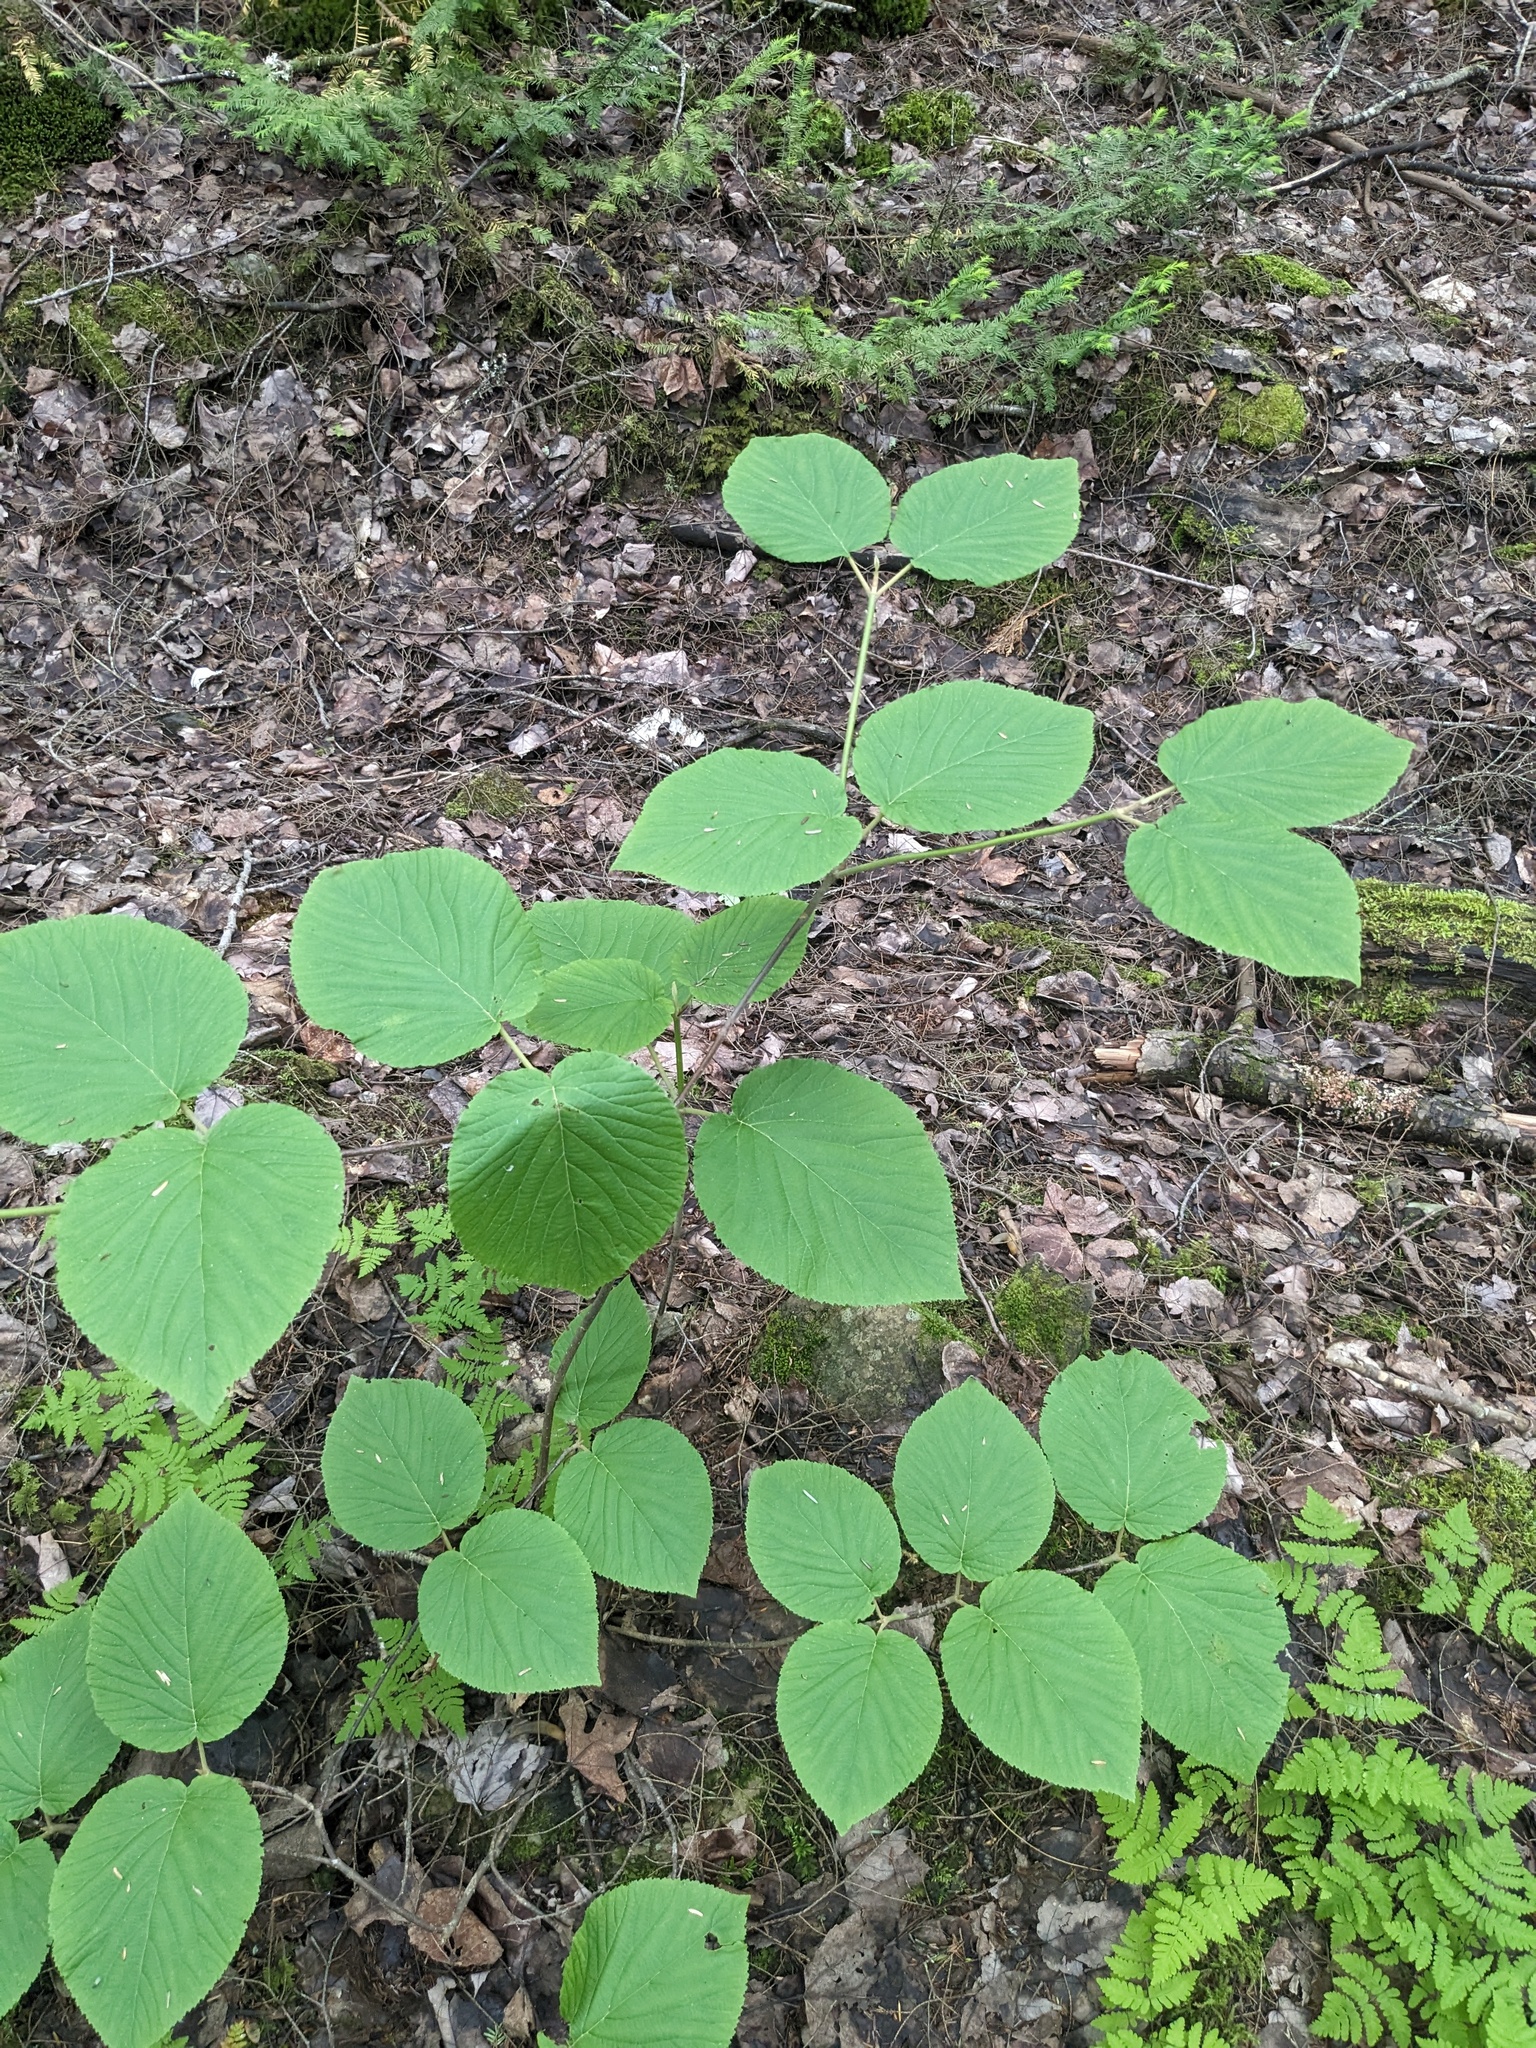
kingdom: Plantae
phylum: Tracheophyta
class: Magnoliopsida
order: Dipsacales
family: Viburnaceae
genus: Viburnum
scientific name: Viburnum lantanoides
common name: Hobblebush
